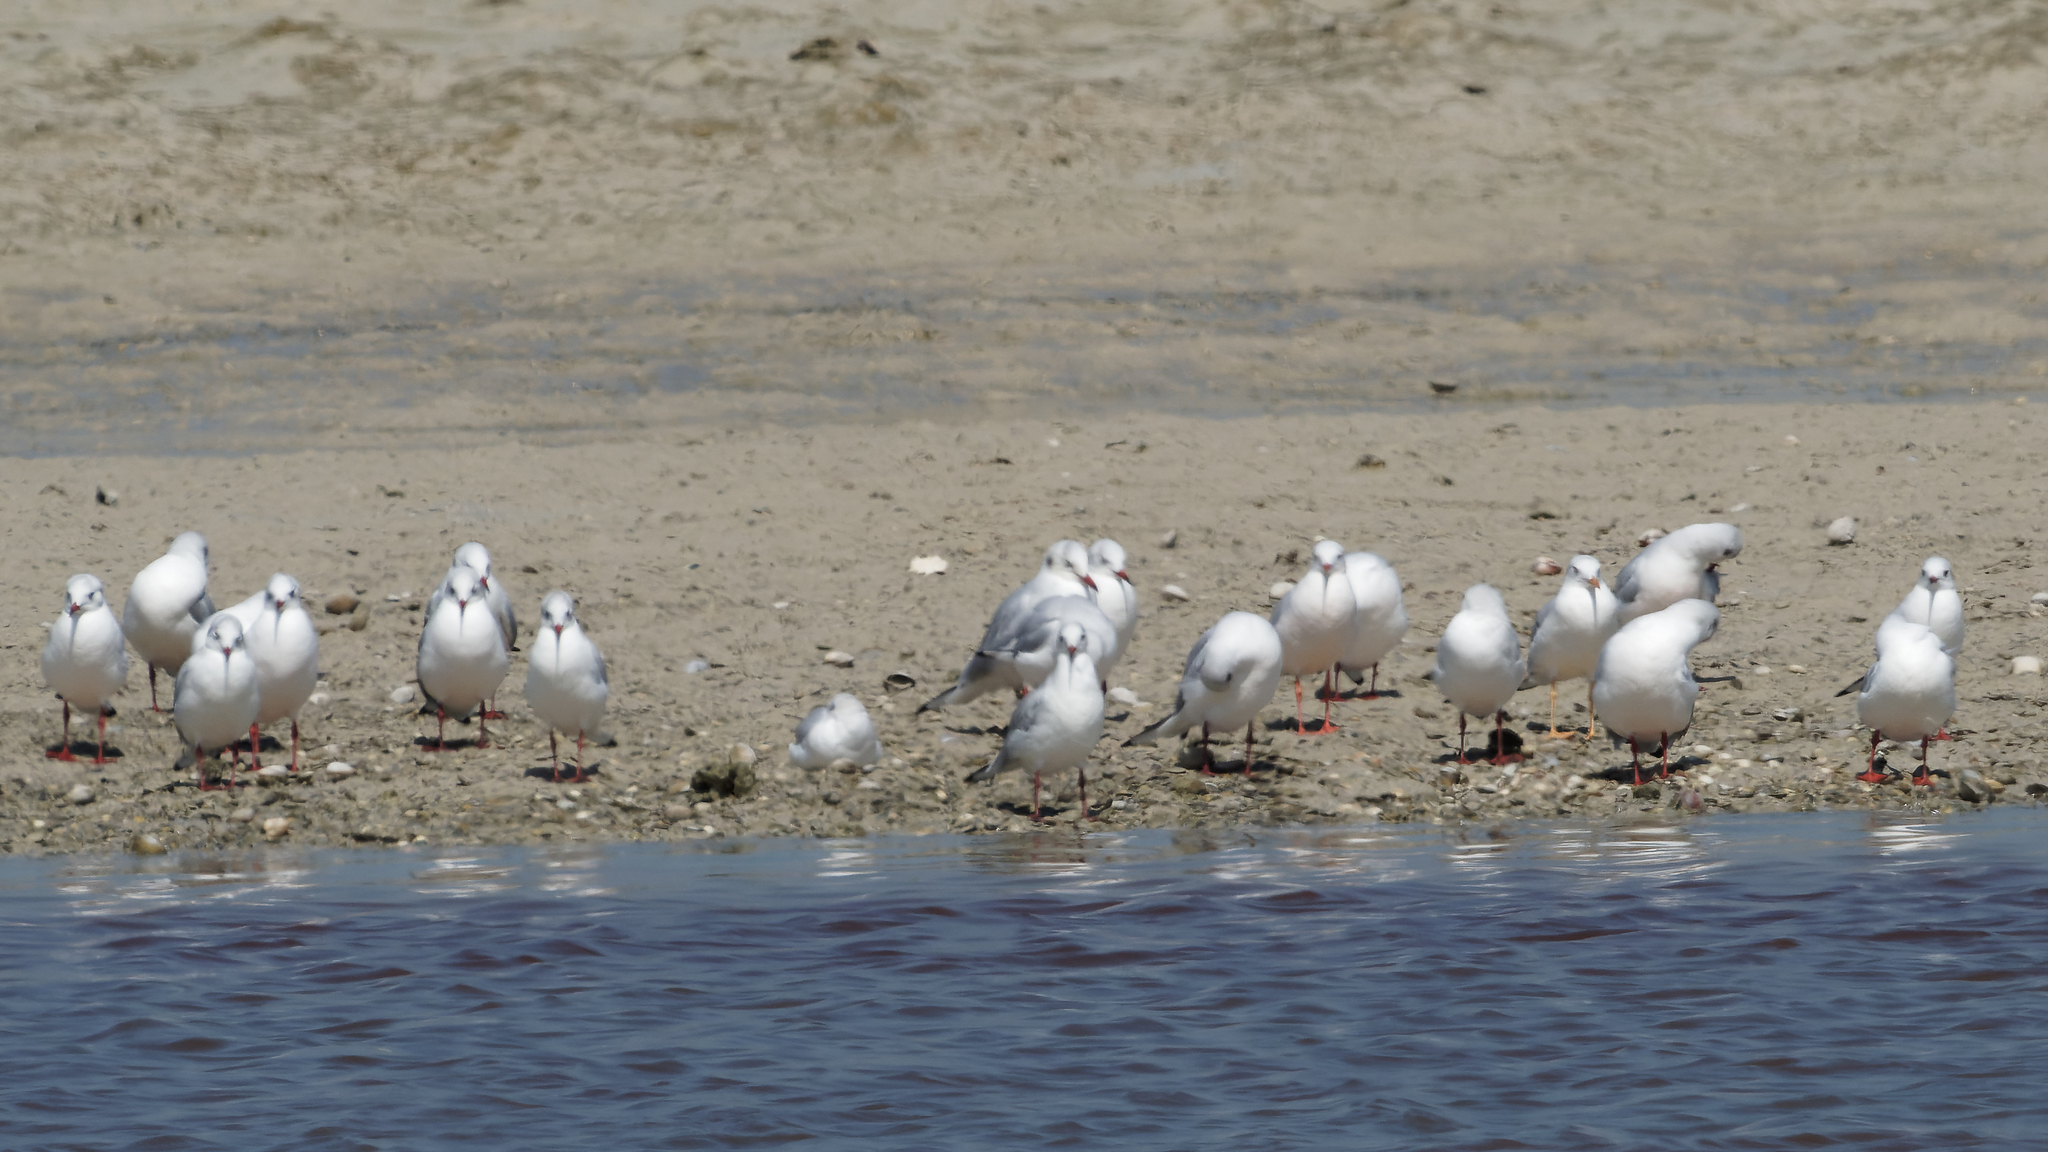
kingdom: Animalia
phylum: Chordata
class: Aves
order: Charadriiformes
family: Laridae
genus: Chroicocephalus
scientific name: Chroicocephalus genei
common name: Slender-billed gull
